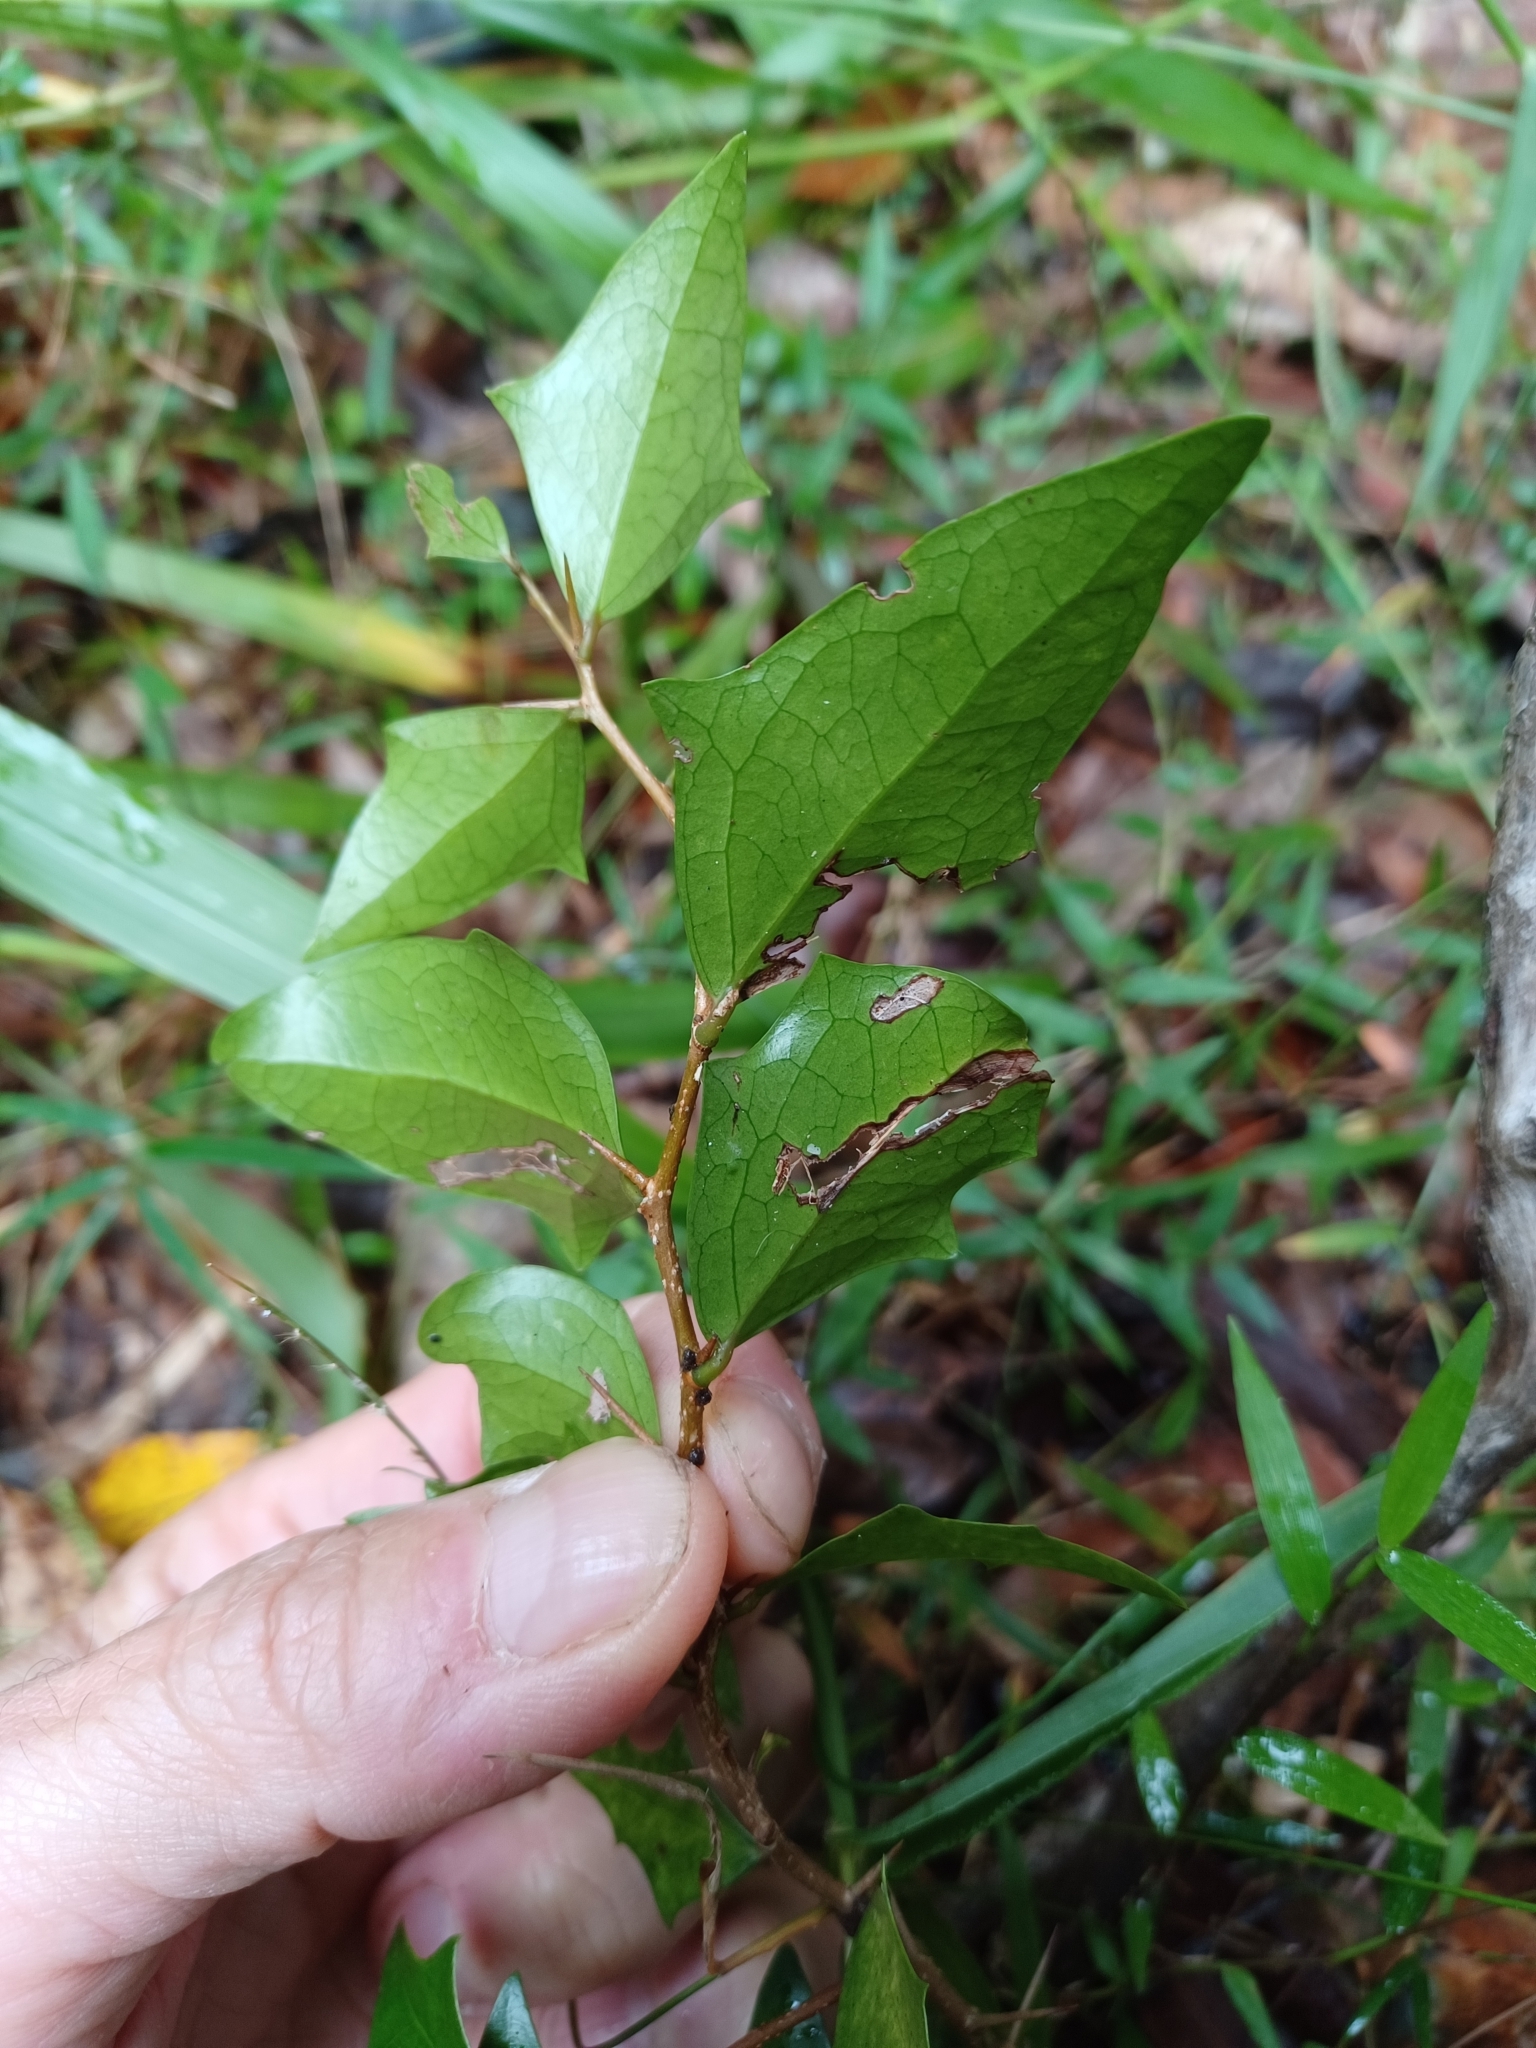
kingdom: Plantae
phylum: Tracheophyta
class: Magnoliopsida
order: Malpighiales
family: Salicaceae
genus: Scolopia
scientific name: Scolopia braunii
